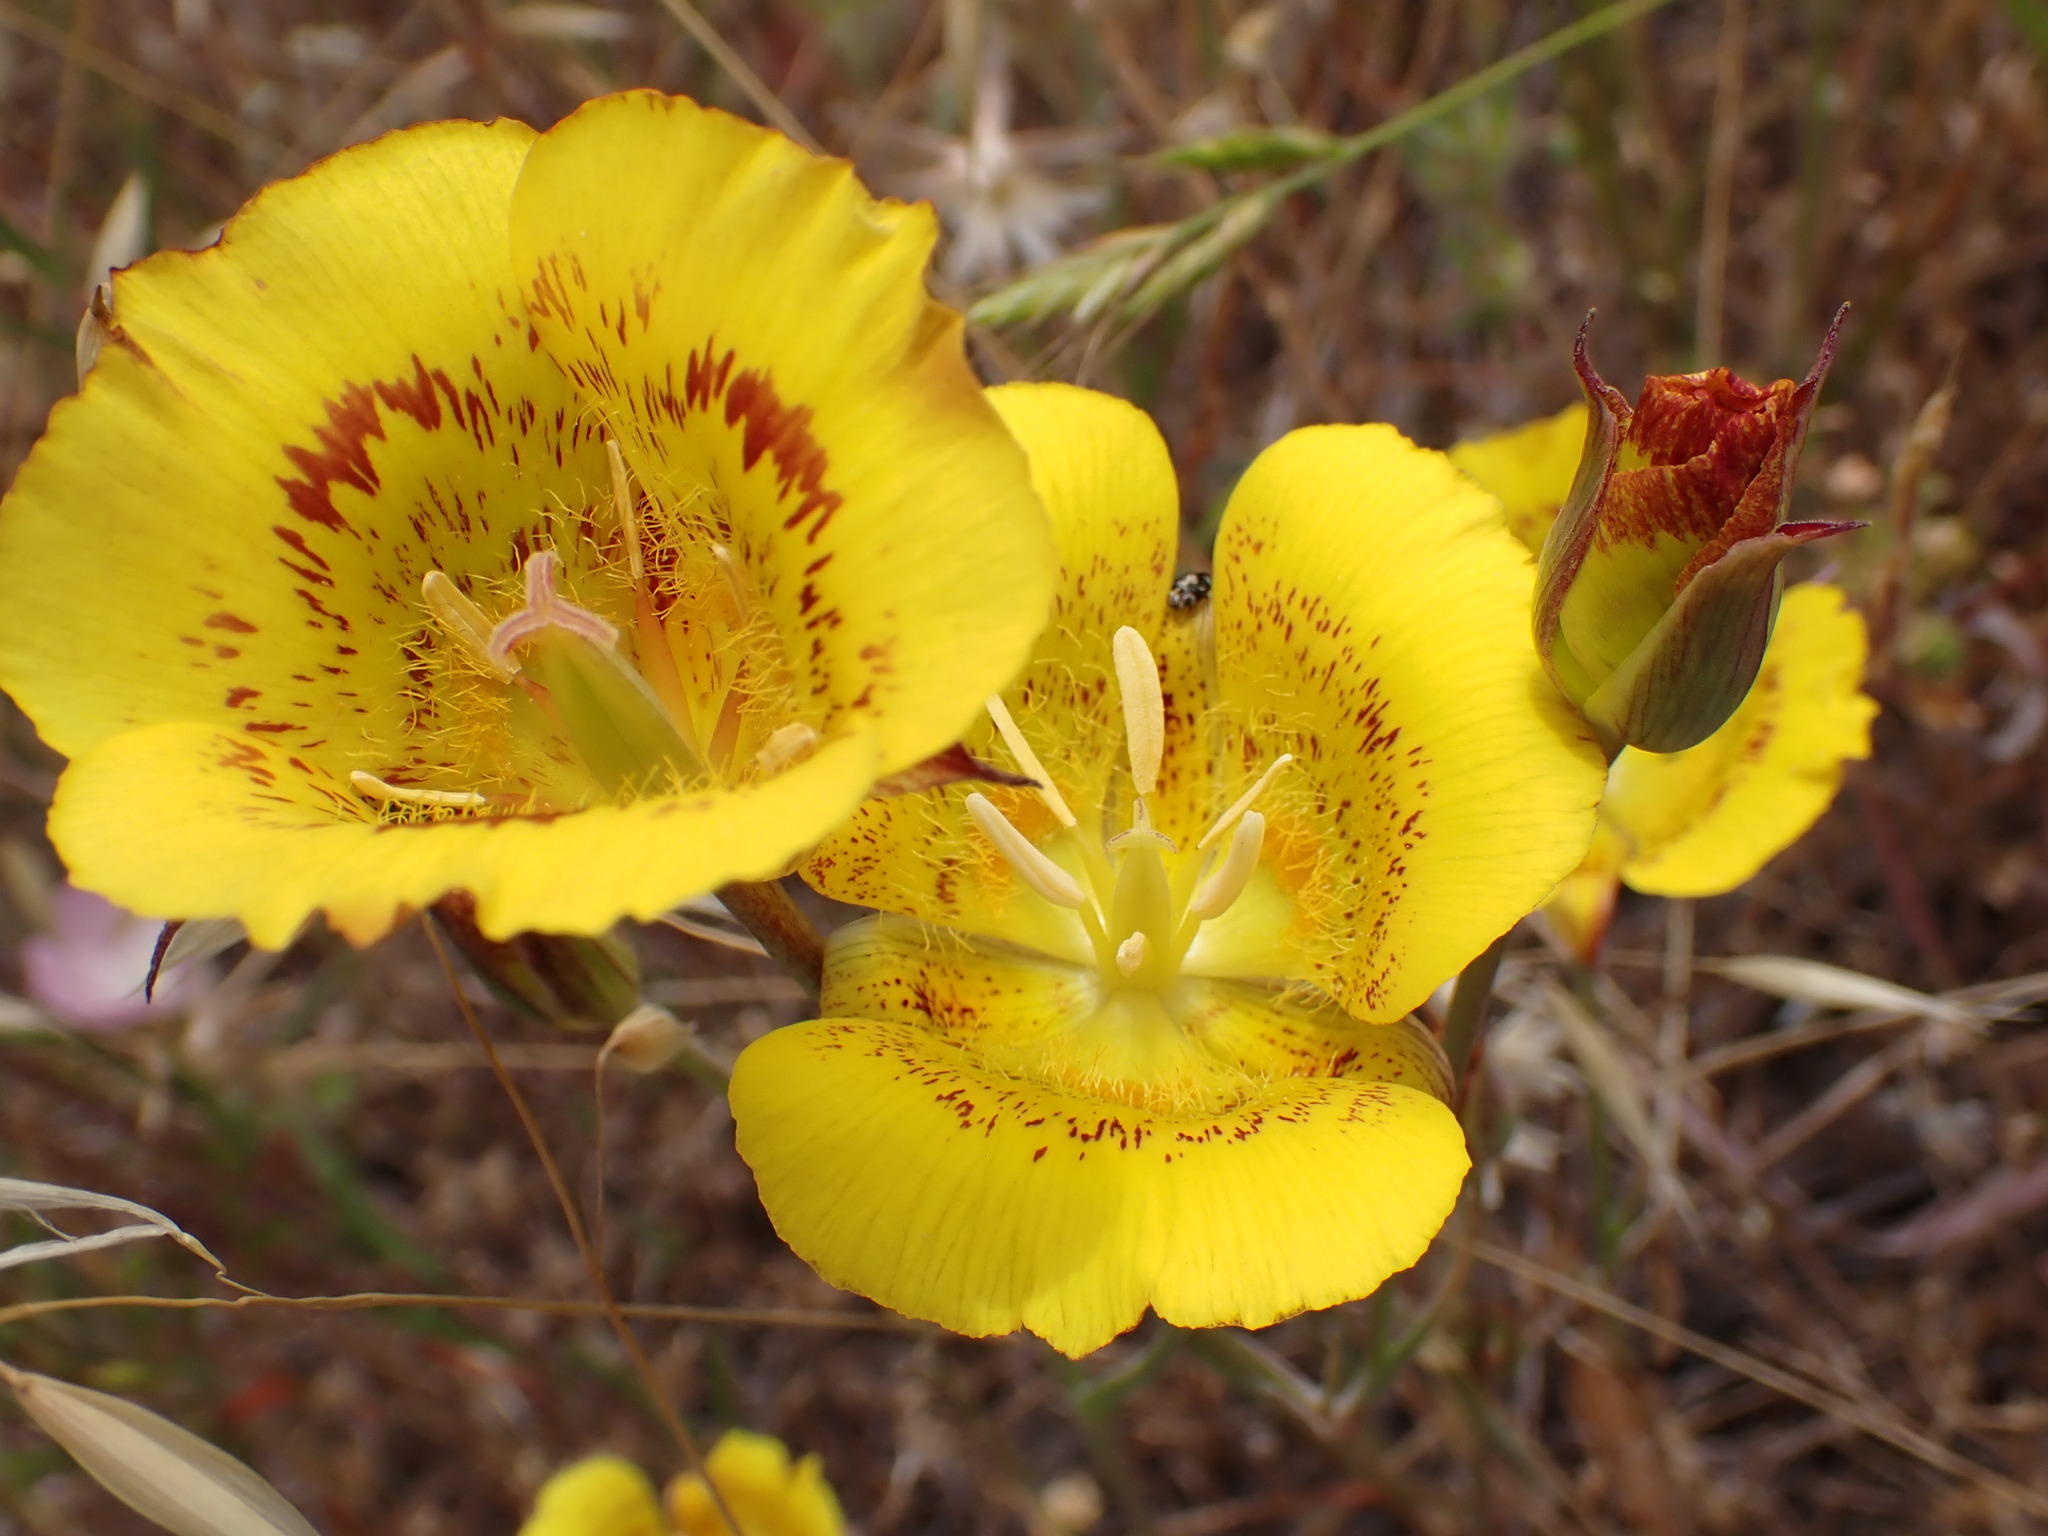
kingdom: Plantae
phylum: Tracheophyta
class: Liliopsida
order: Liliales
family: Liliaceae
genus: Calochortus
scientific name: Calochortus luteus
